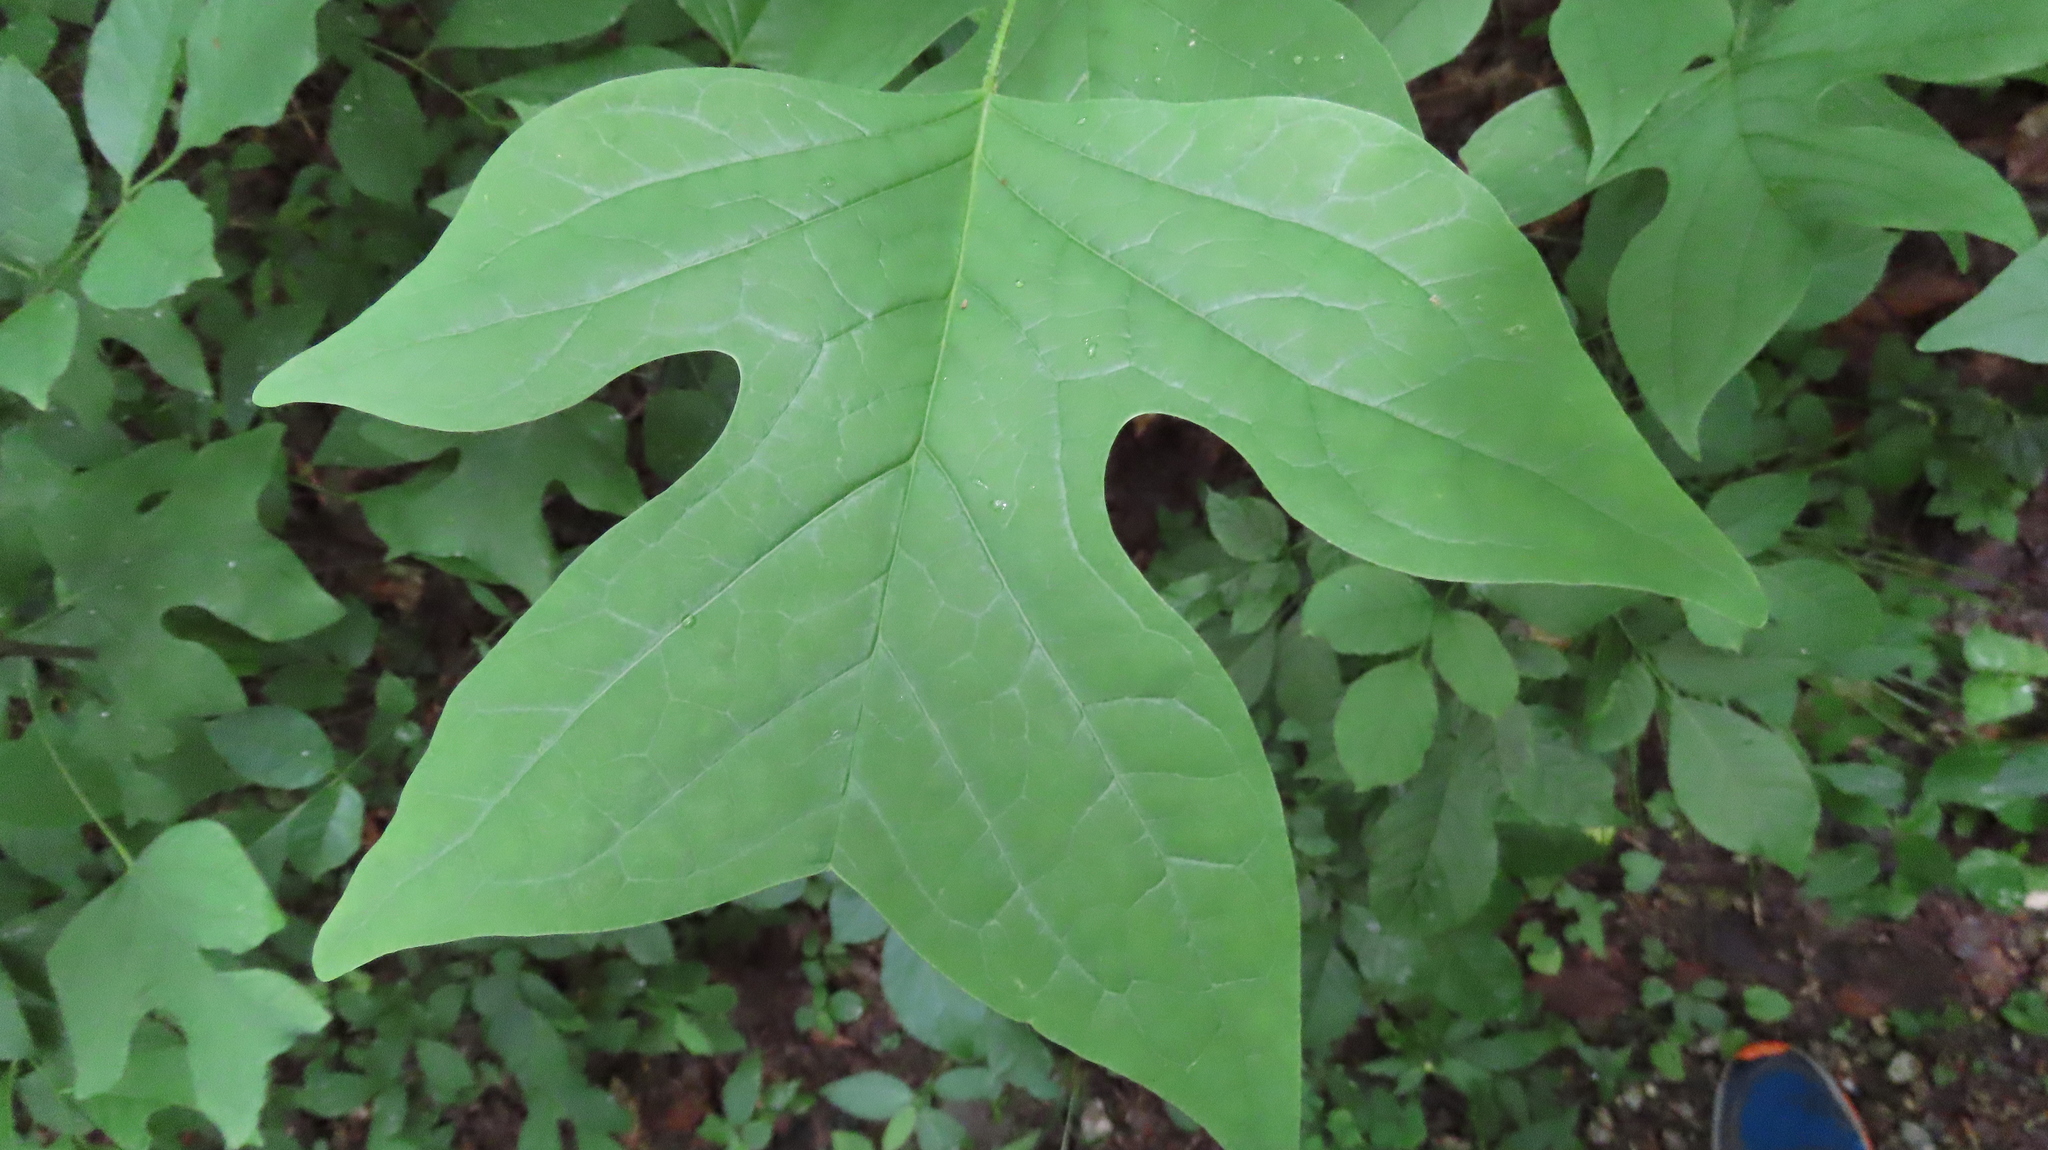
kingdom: Plantae
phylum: Tracheophyta
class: Magnoliopsida
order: Magnoliales
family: Magnoliaceae
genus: Liriodendron
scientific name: Liriodendron tulipifera
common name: Tulip tree
